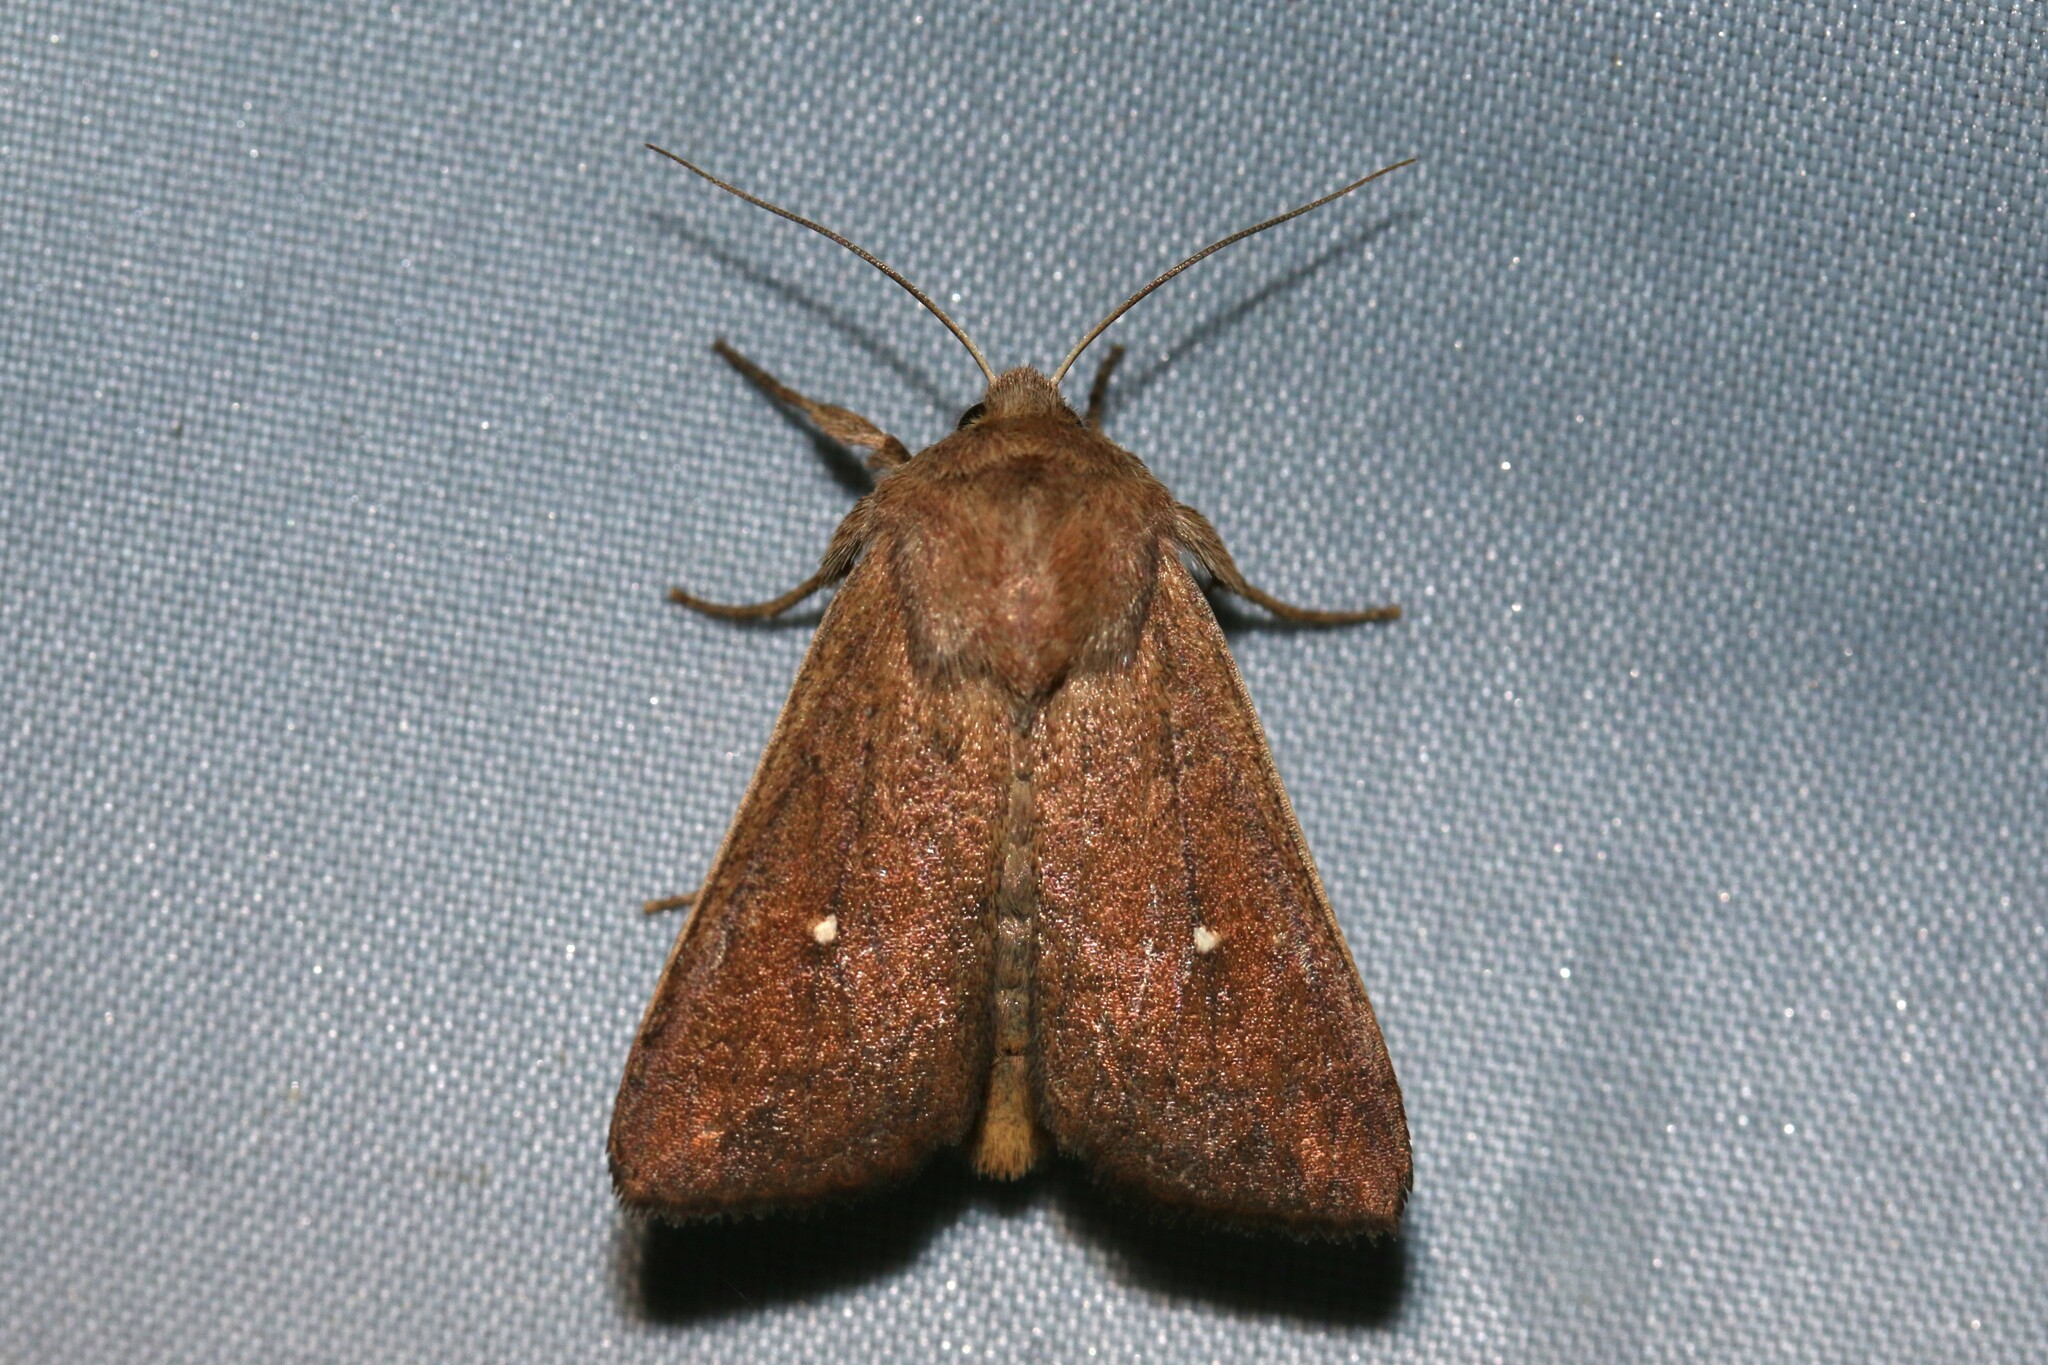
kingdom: Animalia
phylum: Arthropoda
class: Insecta
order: Lepidoptera
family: Noctuidae
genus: Mythimna
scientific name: Mythimna albipuncta
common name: White-point
